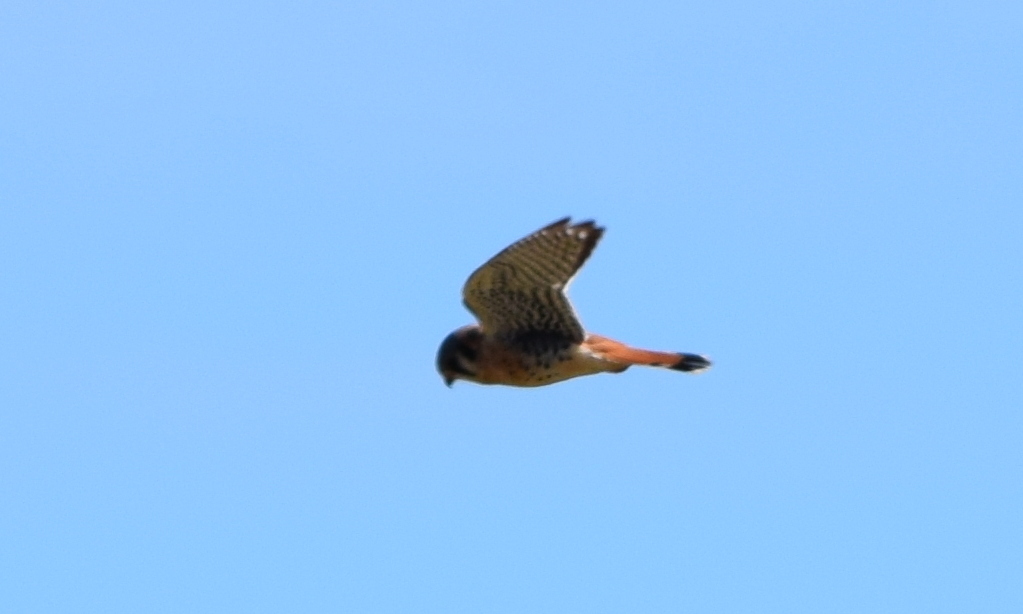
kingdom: Animalia
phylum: Chordata
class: Aves
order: Falconiformes
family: Falconidae
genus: Falco
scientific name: Falco sparverius
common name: American kestrel
